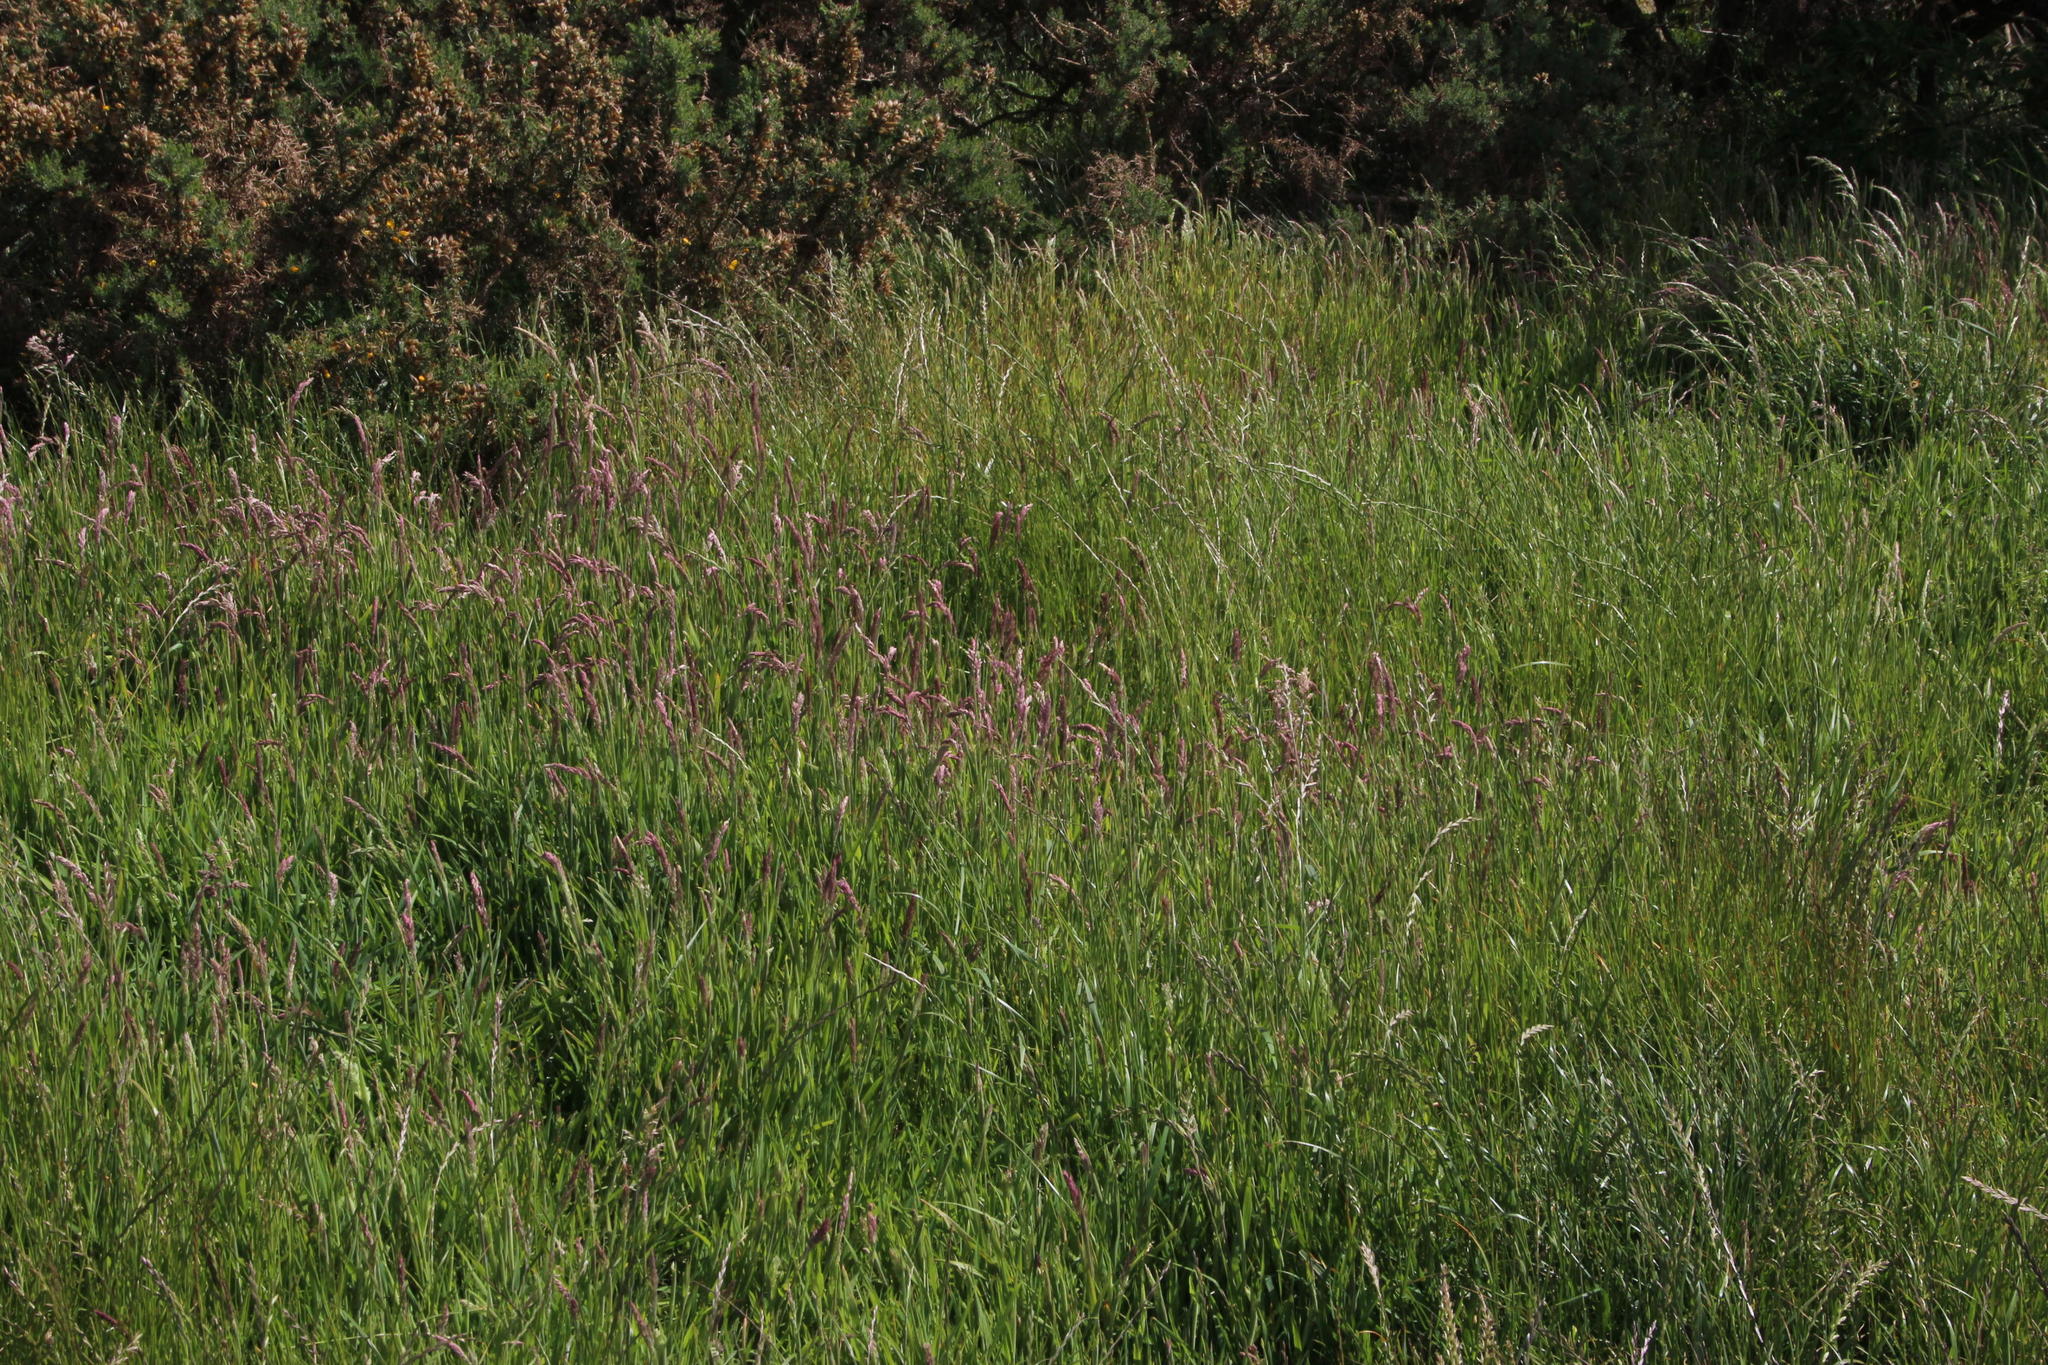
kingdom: Plantae
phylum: Tracheophyta
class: Liliopsida
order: Poales
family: Poaceae
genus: Holcus
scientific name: Holcus lanatus
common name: Yorkshire-fog
